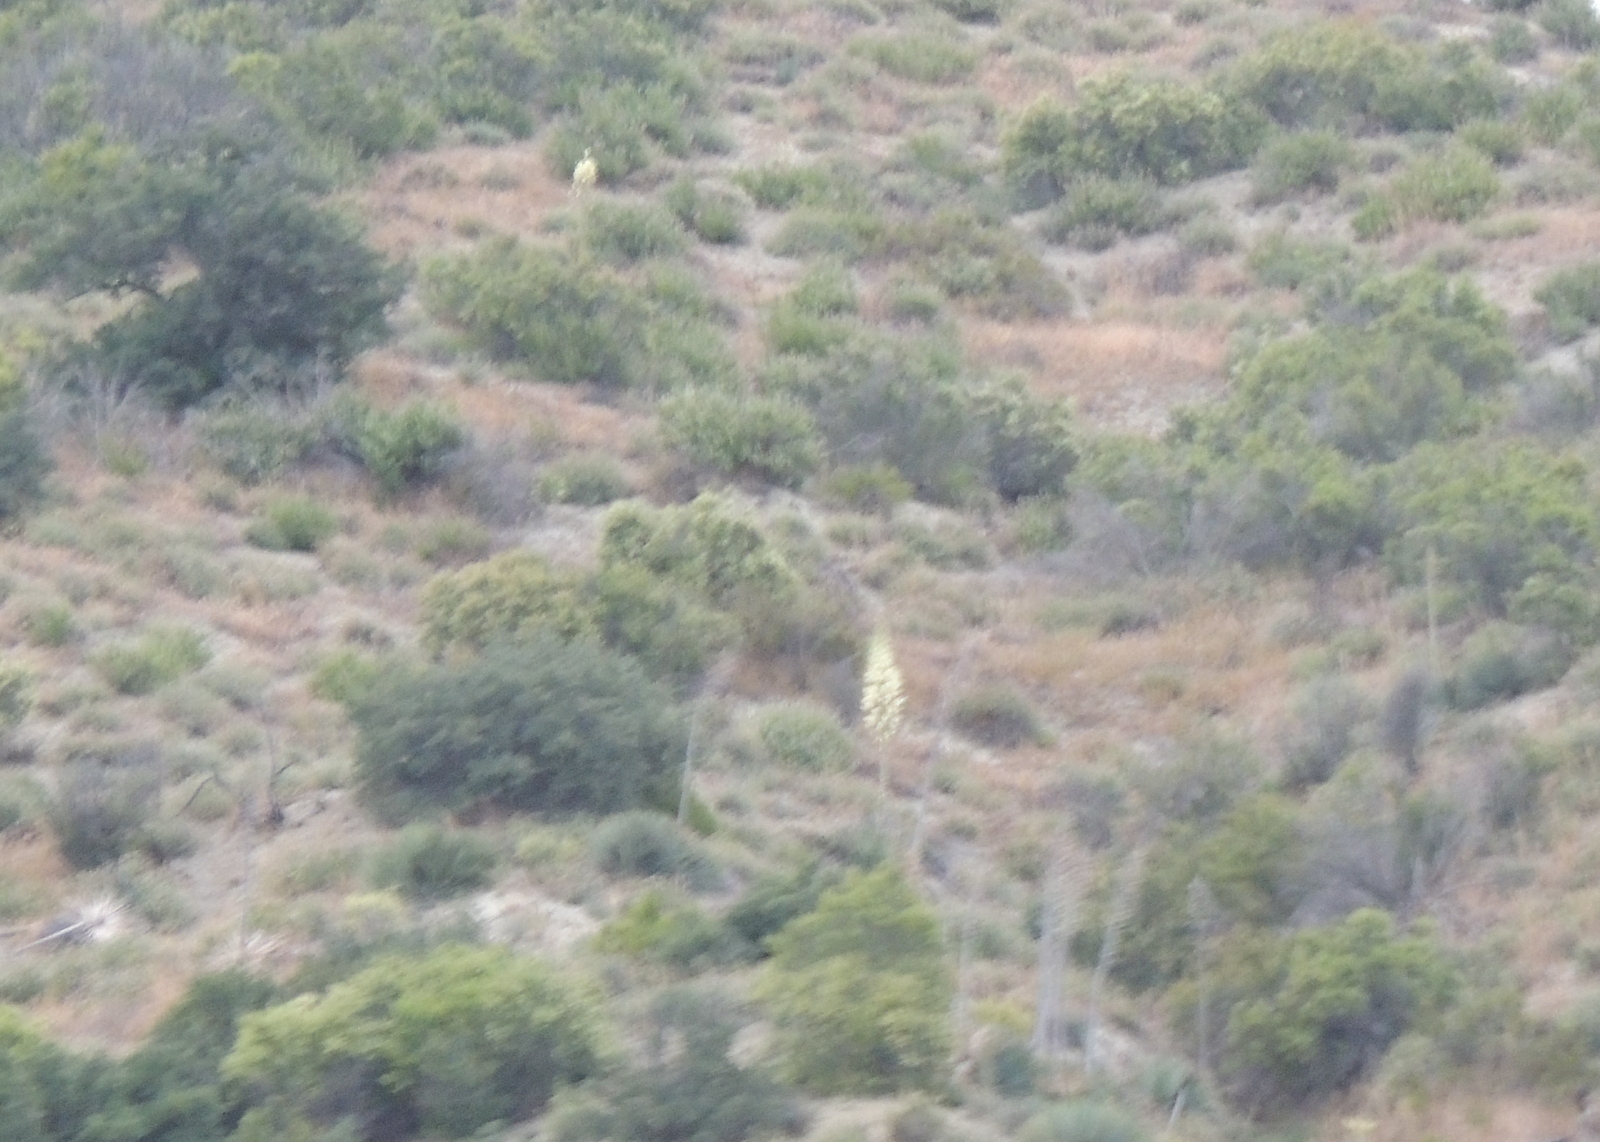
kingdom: Plantae
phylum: Tracheophyta
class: Liliopsida
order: Asparagales
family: Asparagaceae
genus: Hesperoyucca
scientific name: Hesperoyucca whipplei
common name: Our lord's-candle
